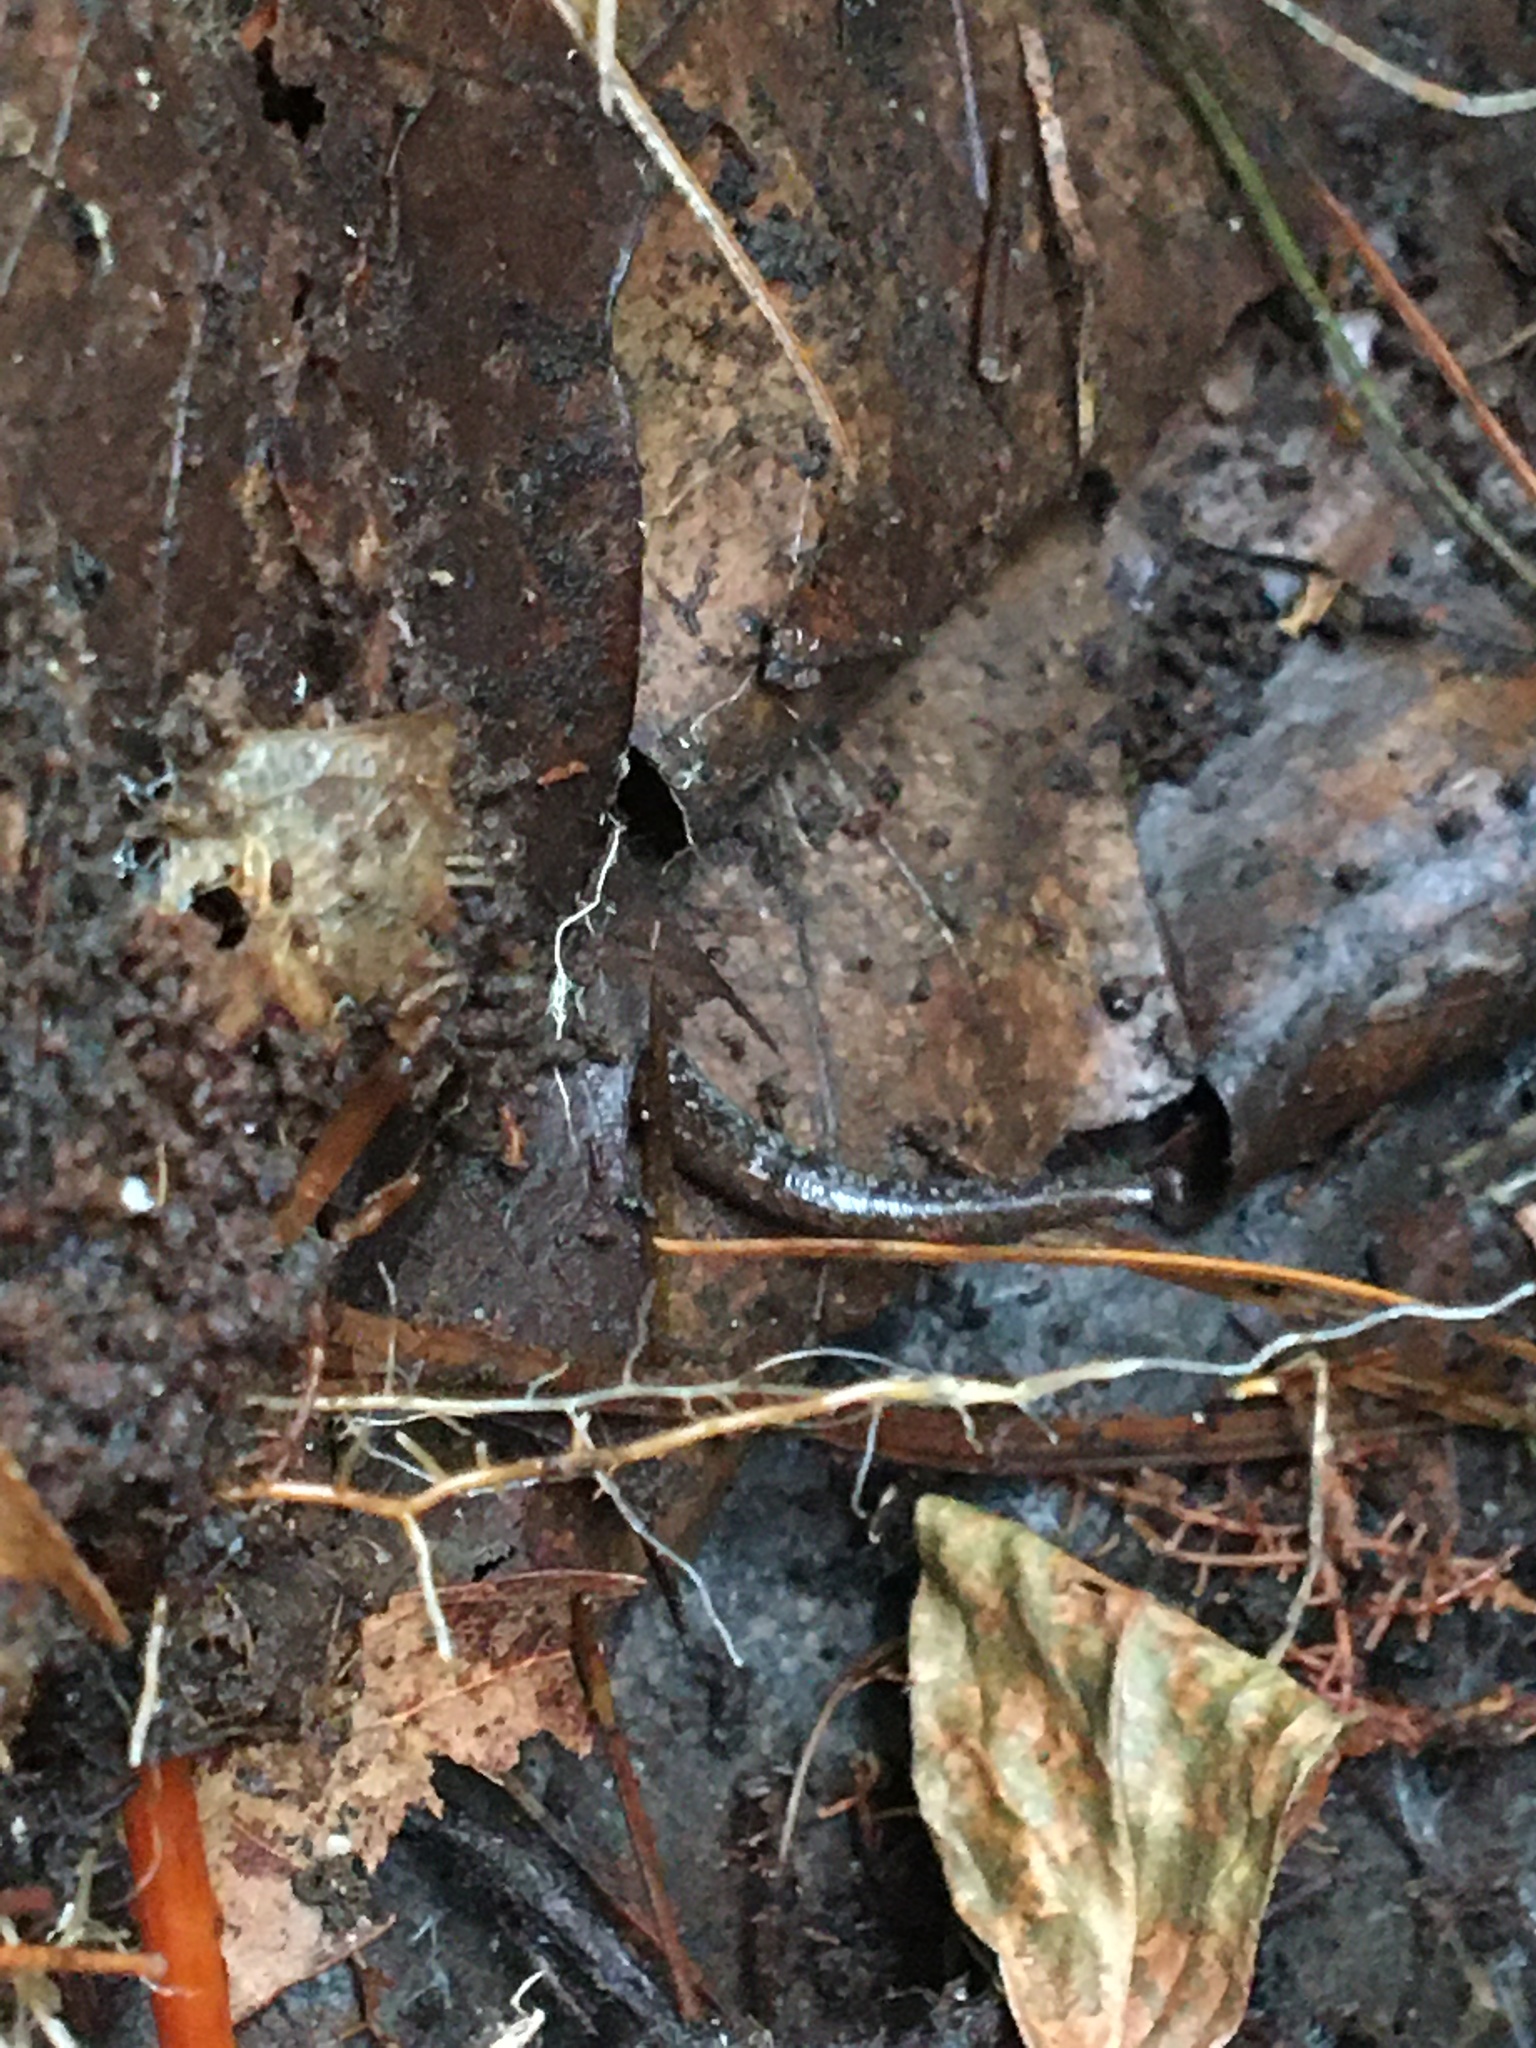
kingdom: Animalia
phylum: Chordata
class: Amphibia
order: Caudata
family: Plethodontidae
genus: Plethodon
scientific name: Plethodon cinereus
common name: Redback salamander
